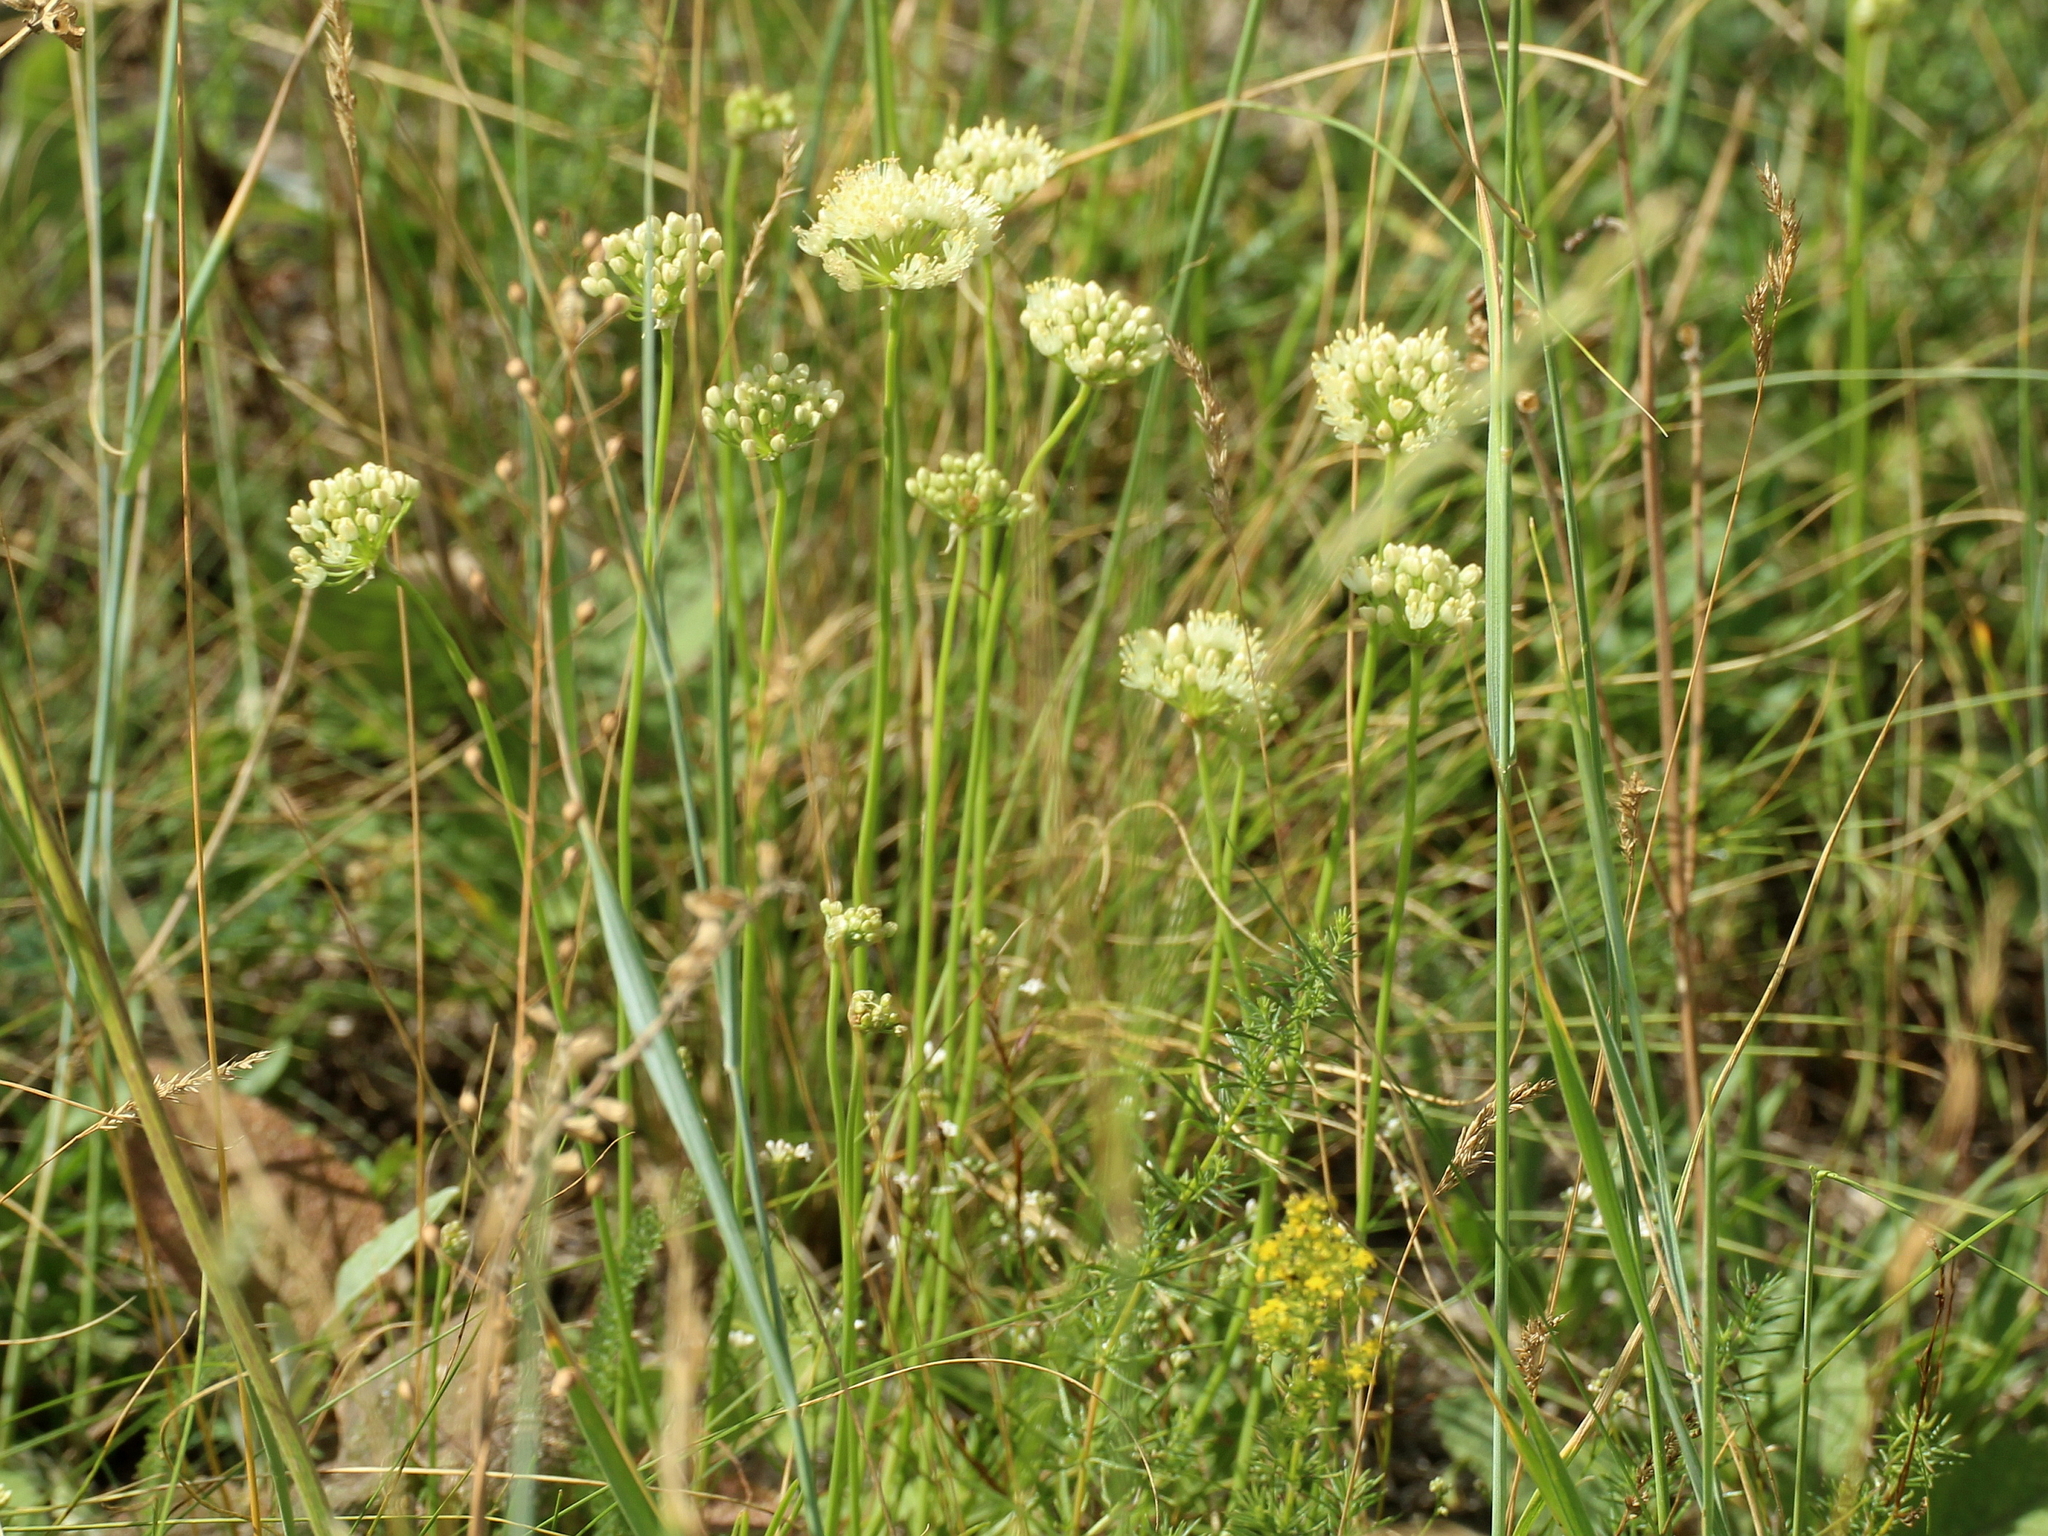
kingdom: Plantae
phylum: Tracheophyta
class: Liliopsida
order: Asparagales
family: Amaryllidaceae
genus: Allium
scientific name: Allium flavescens
